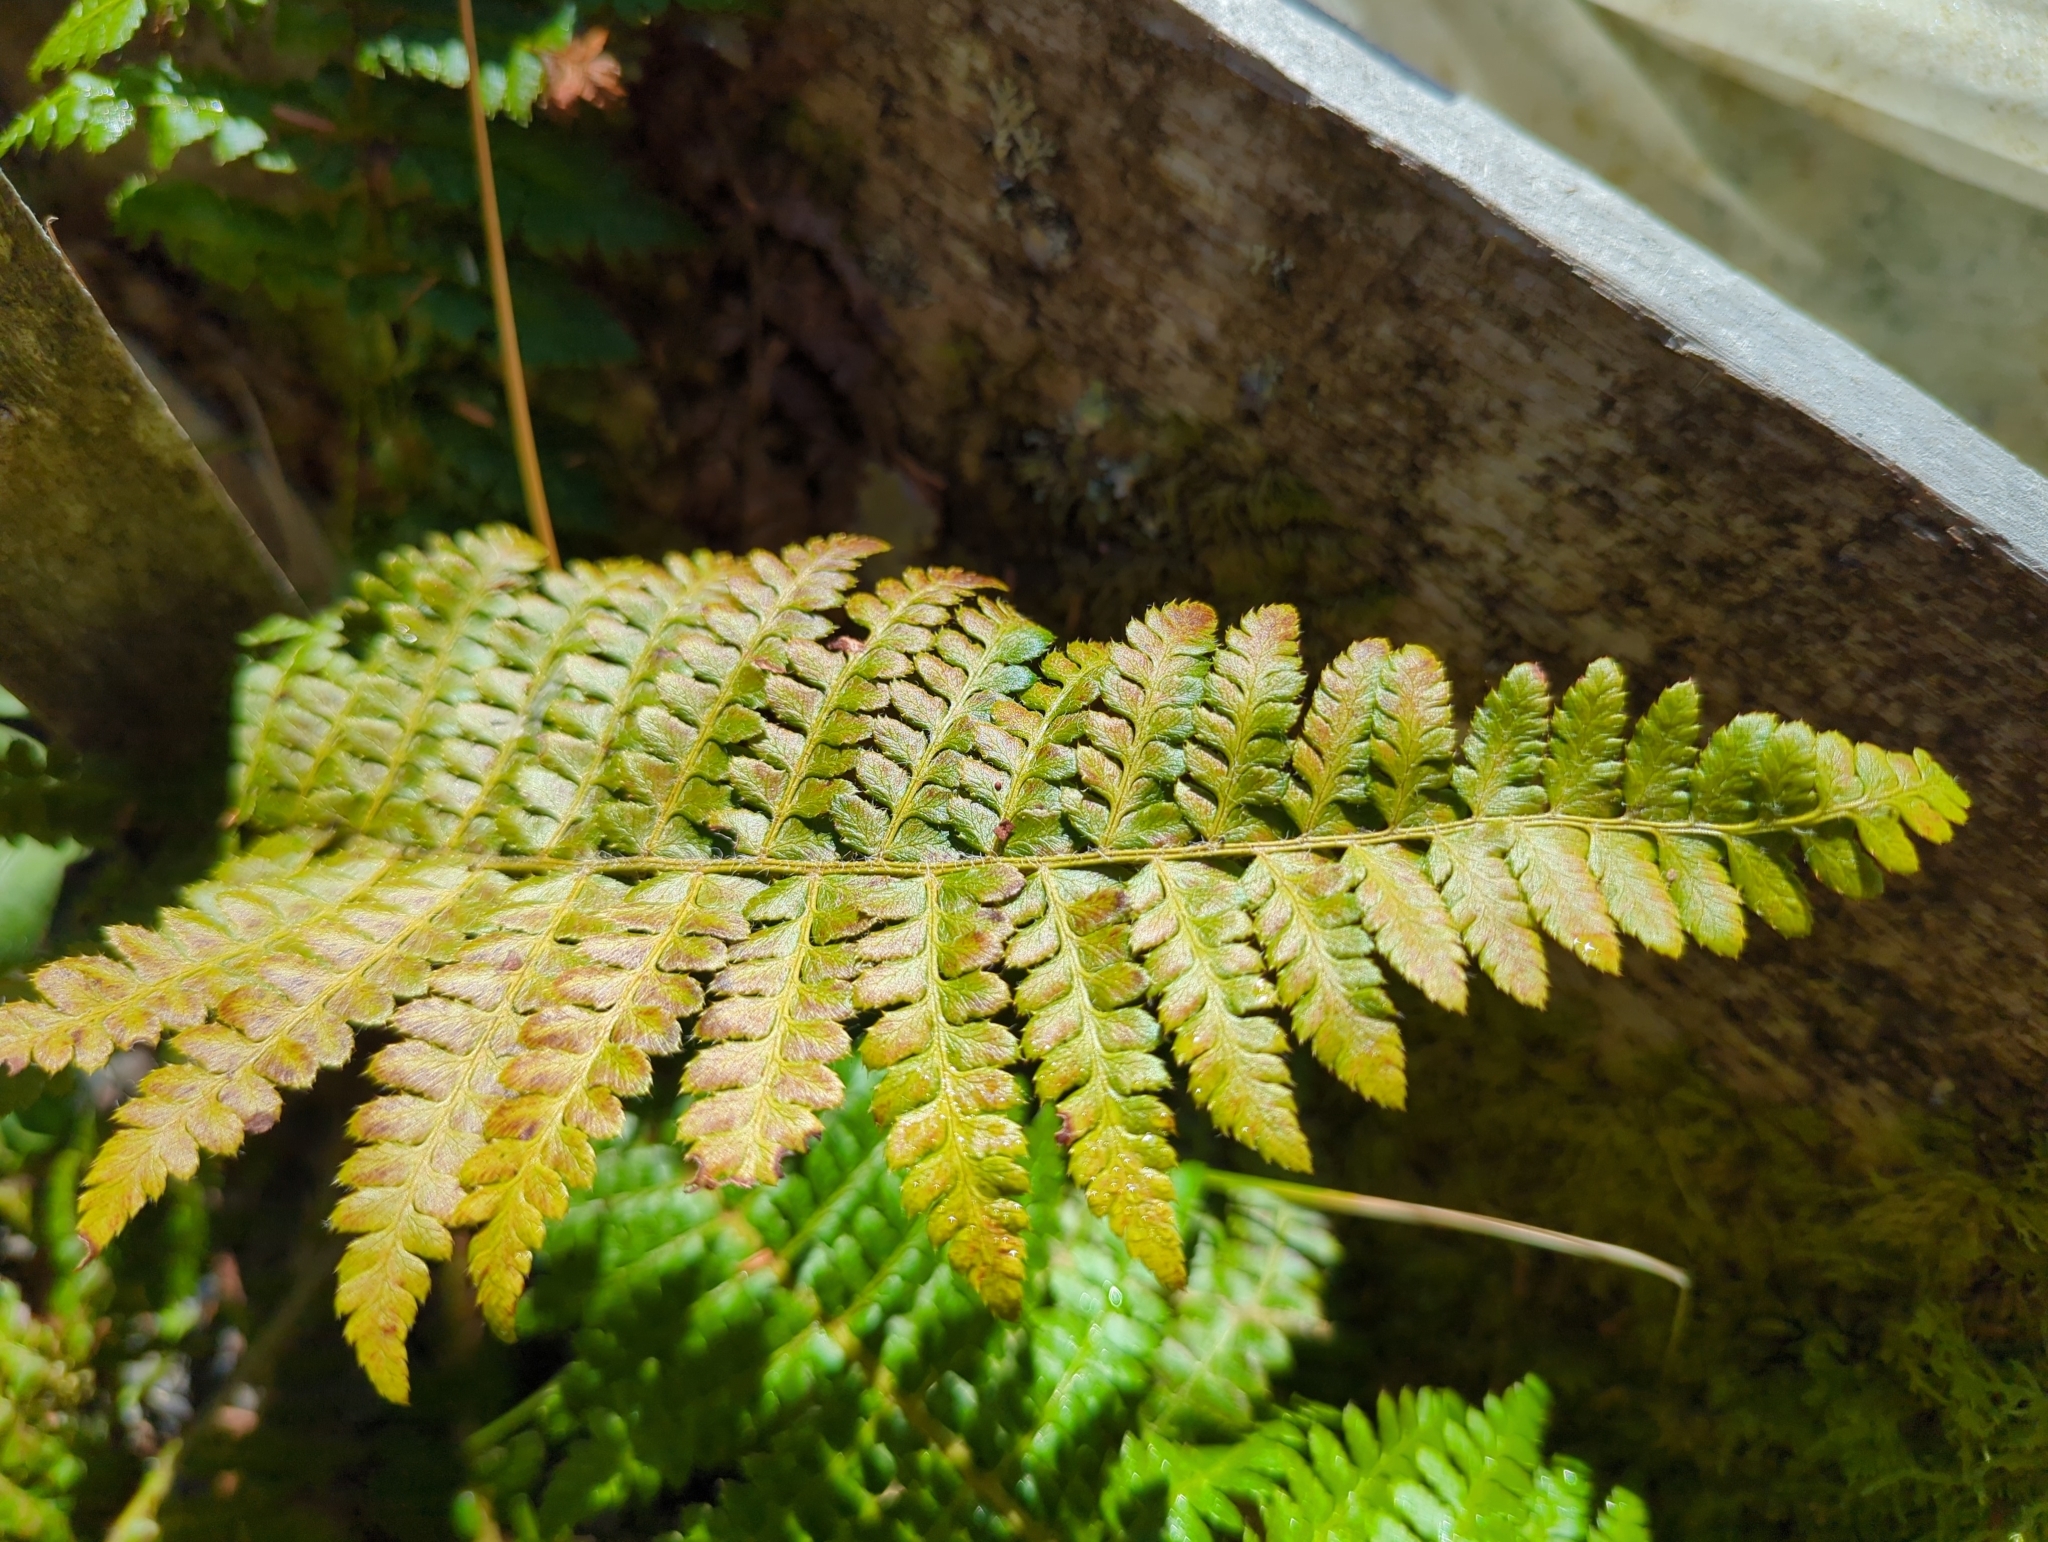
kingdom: Plantae
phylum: Tracheophyta
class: Polypodiopsida
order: Polypodiales
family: Dryopteridaceae
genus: Polystichum
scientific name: Polystichum braunii
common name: Braun's holly fern
